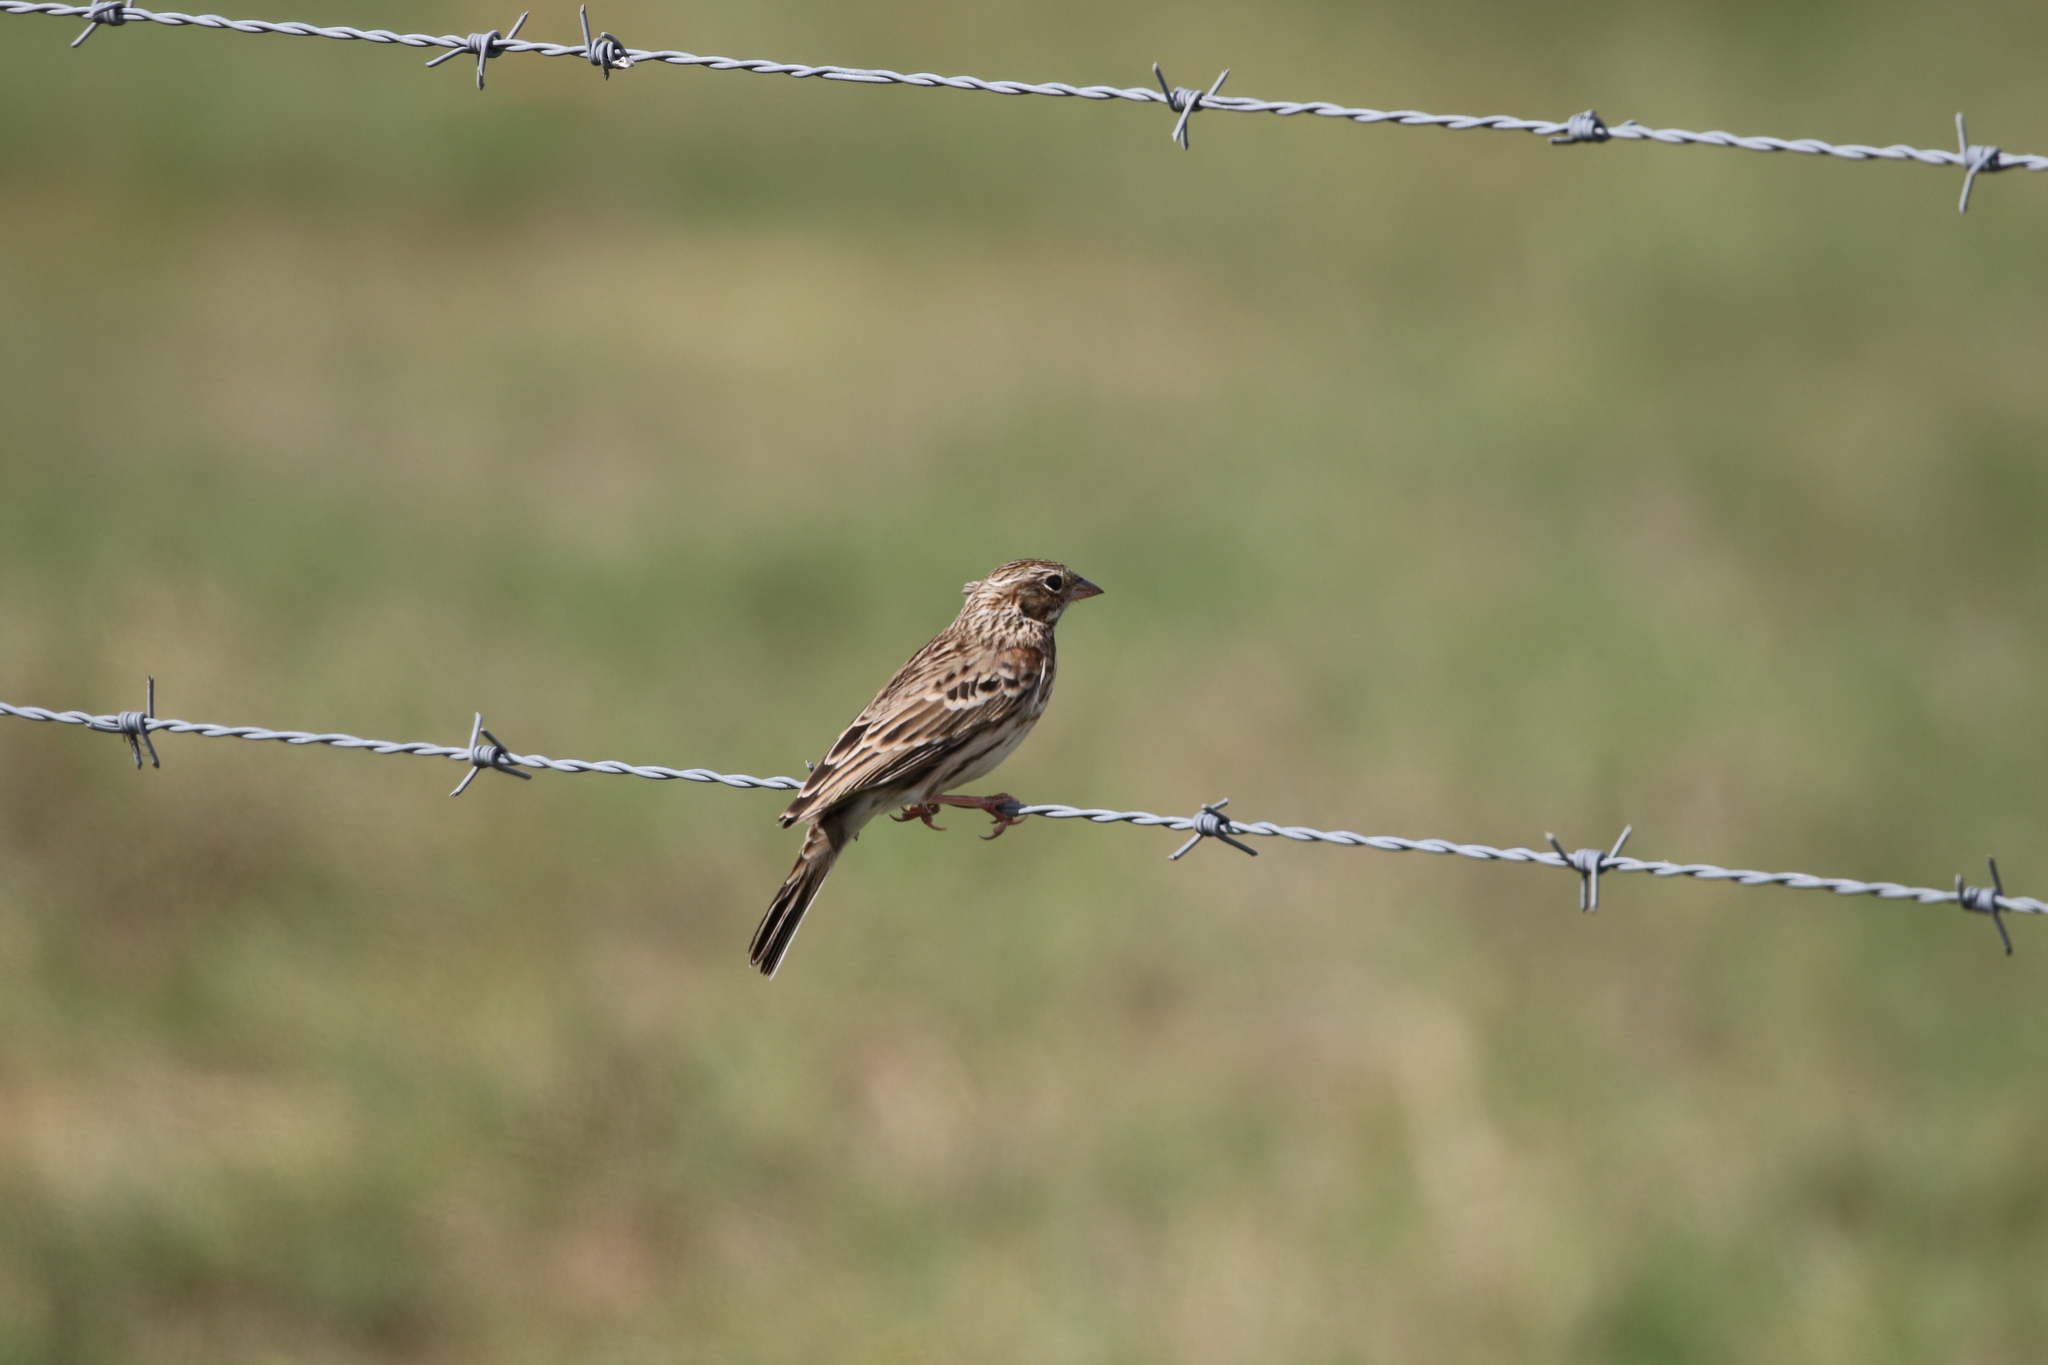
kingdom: Animalia
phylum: Chordata
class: Aves
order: Passeriformes
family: Passerellidae
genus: Pooecetes
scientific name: Pooecetes gramineus
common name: Vesper sparrow
